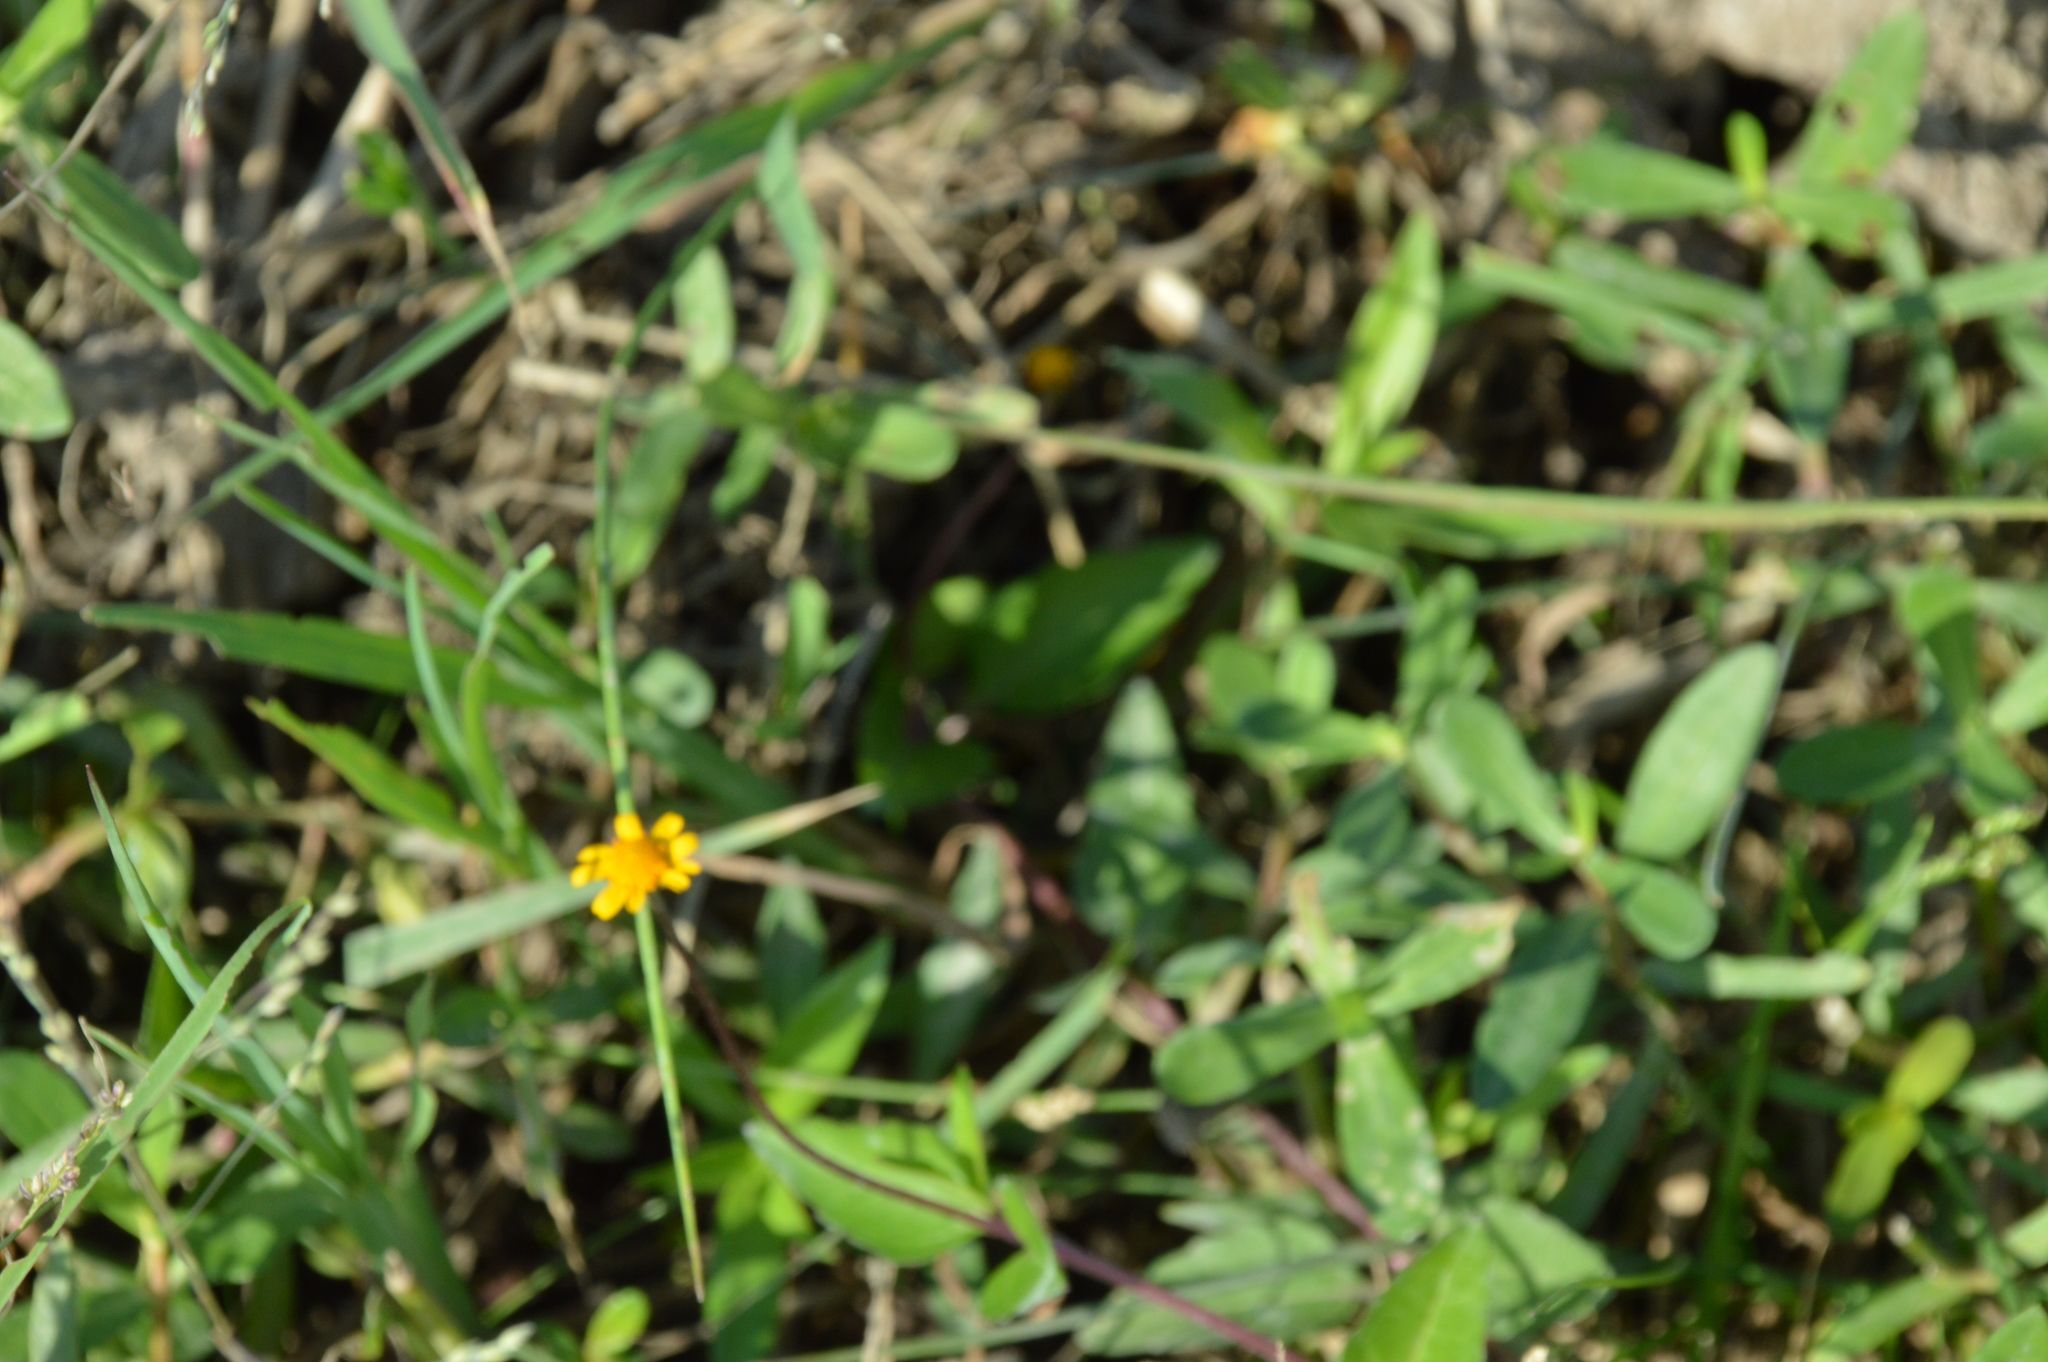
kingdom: Plantae
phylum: Tracheophyta
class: Magnoliopsida
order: Asterales
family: Asteraceae
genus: Acmella
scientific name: Acmella repens
